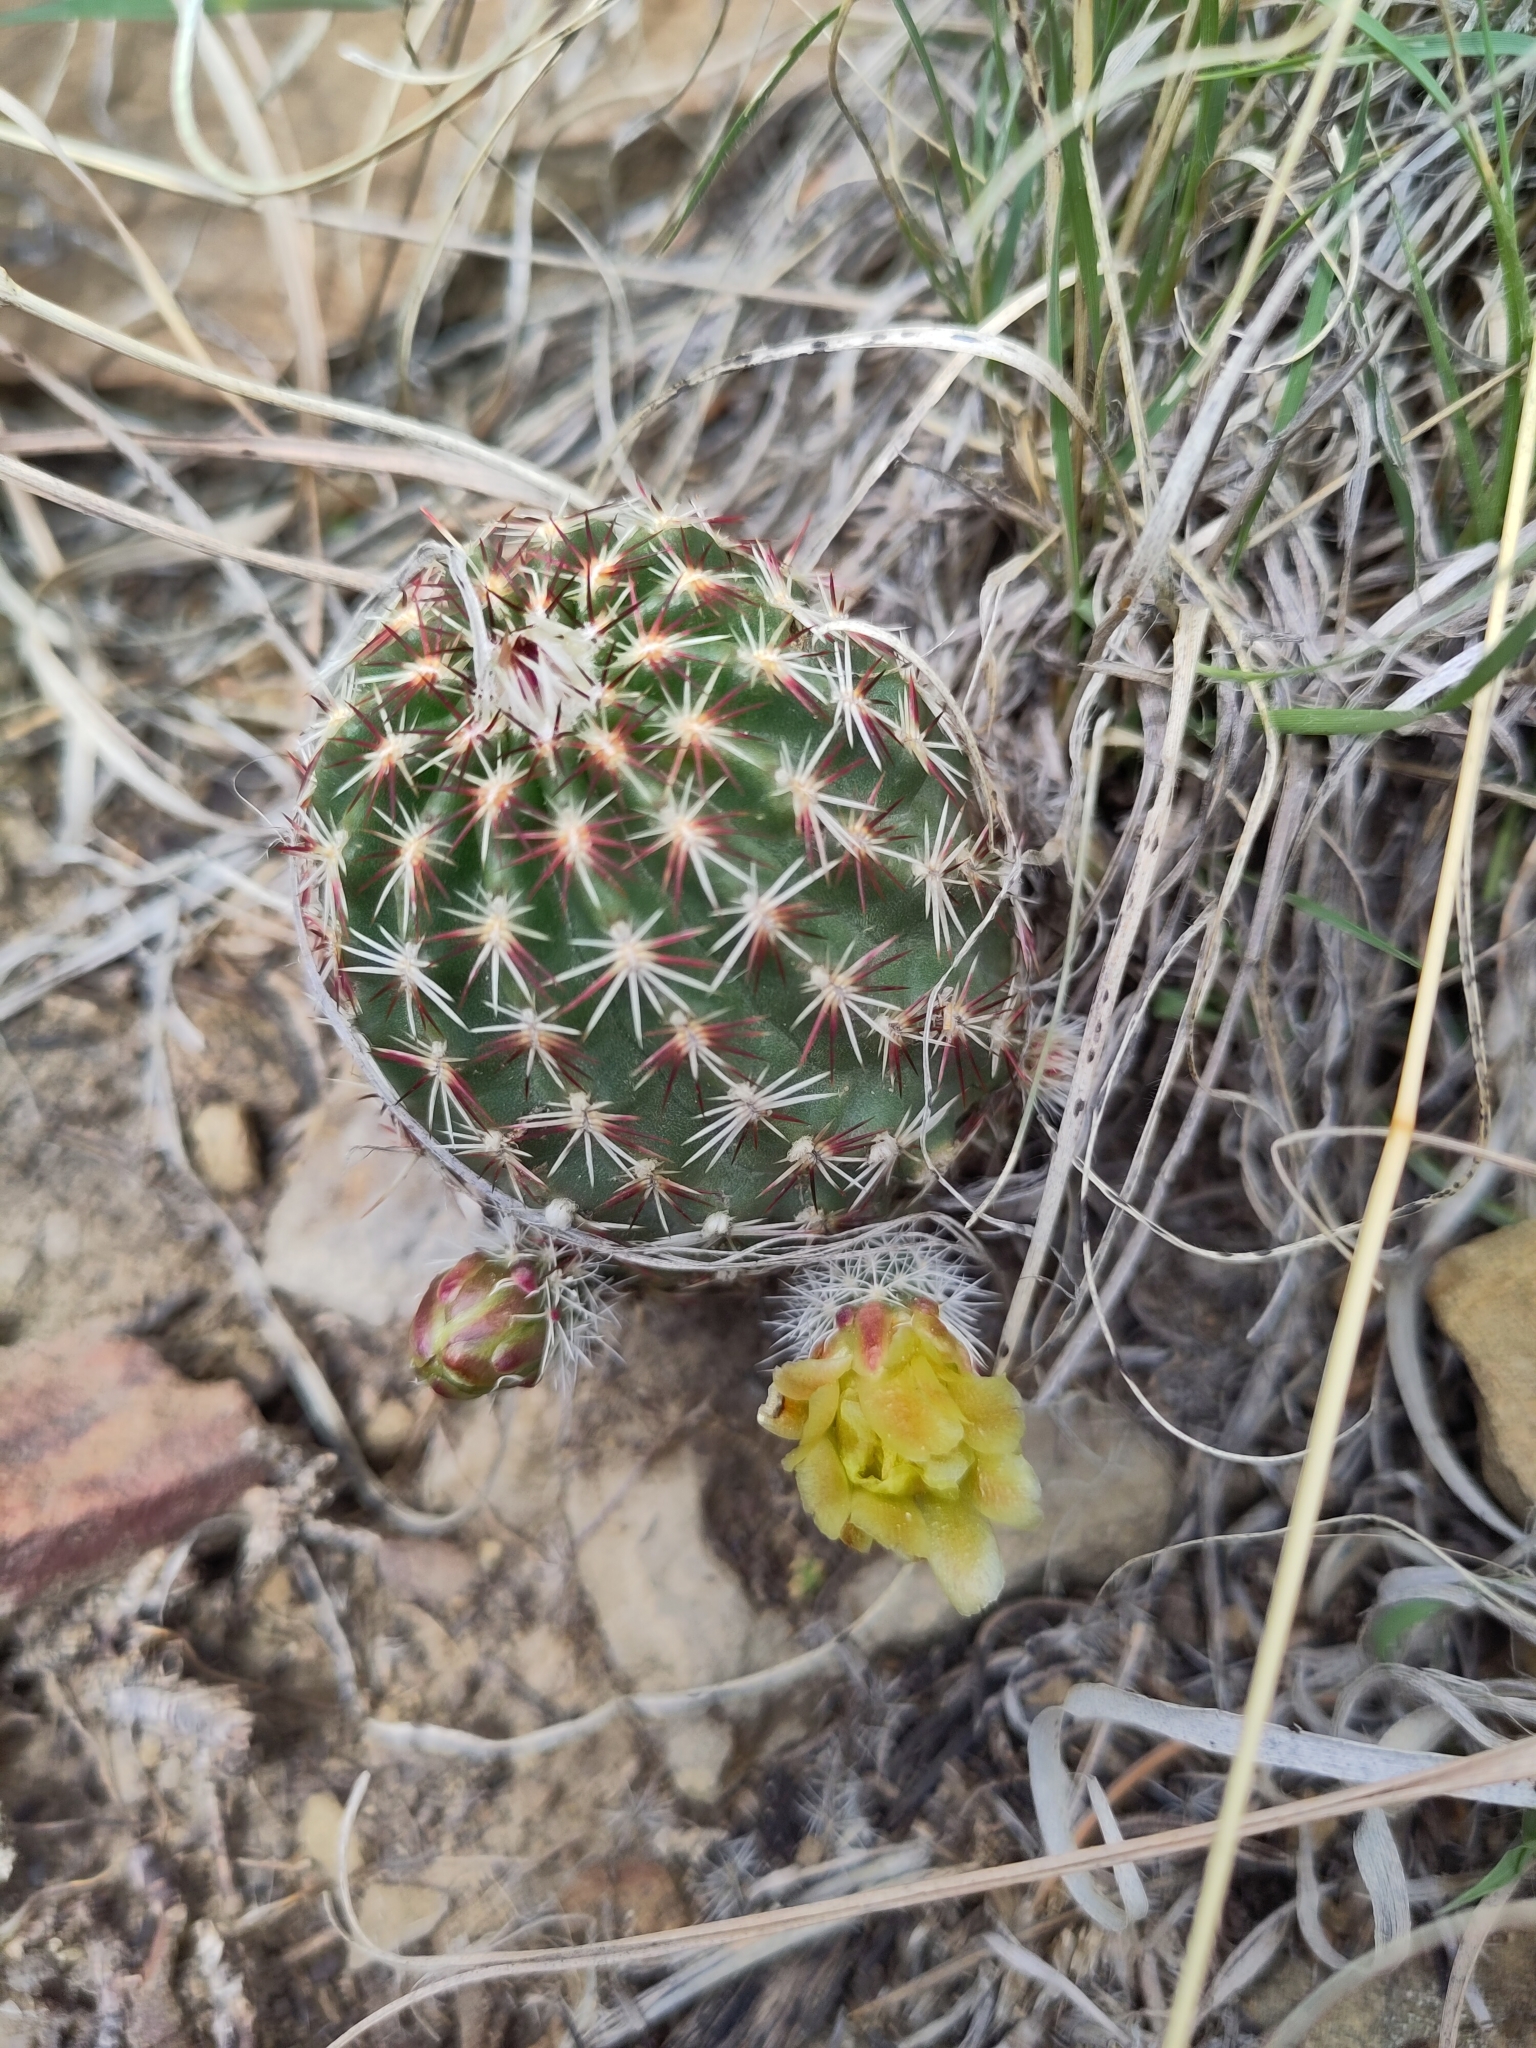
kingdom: Plantae
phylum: Tracheophyta
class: Magnoliopsida
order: Caryophyllales
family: Cactaceae
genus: Echinocereus
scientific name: Echinocereus viridiflorus
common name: Nylon hedgehog cactus
